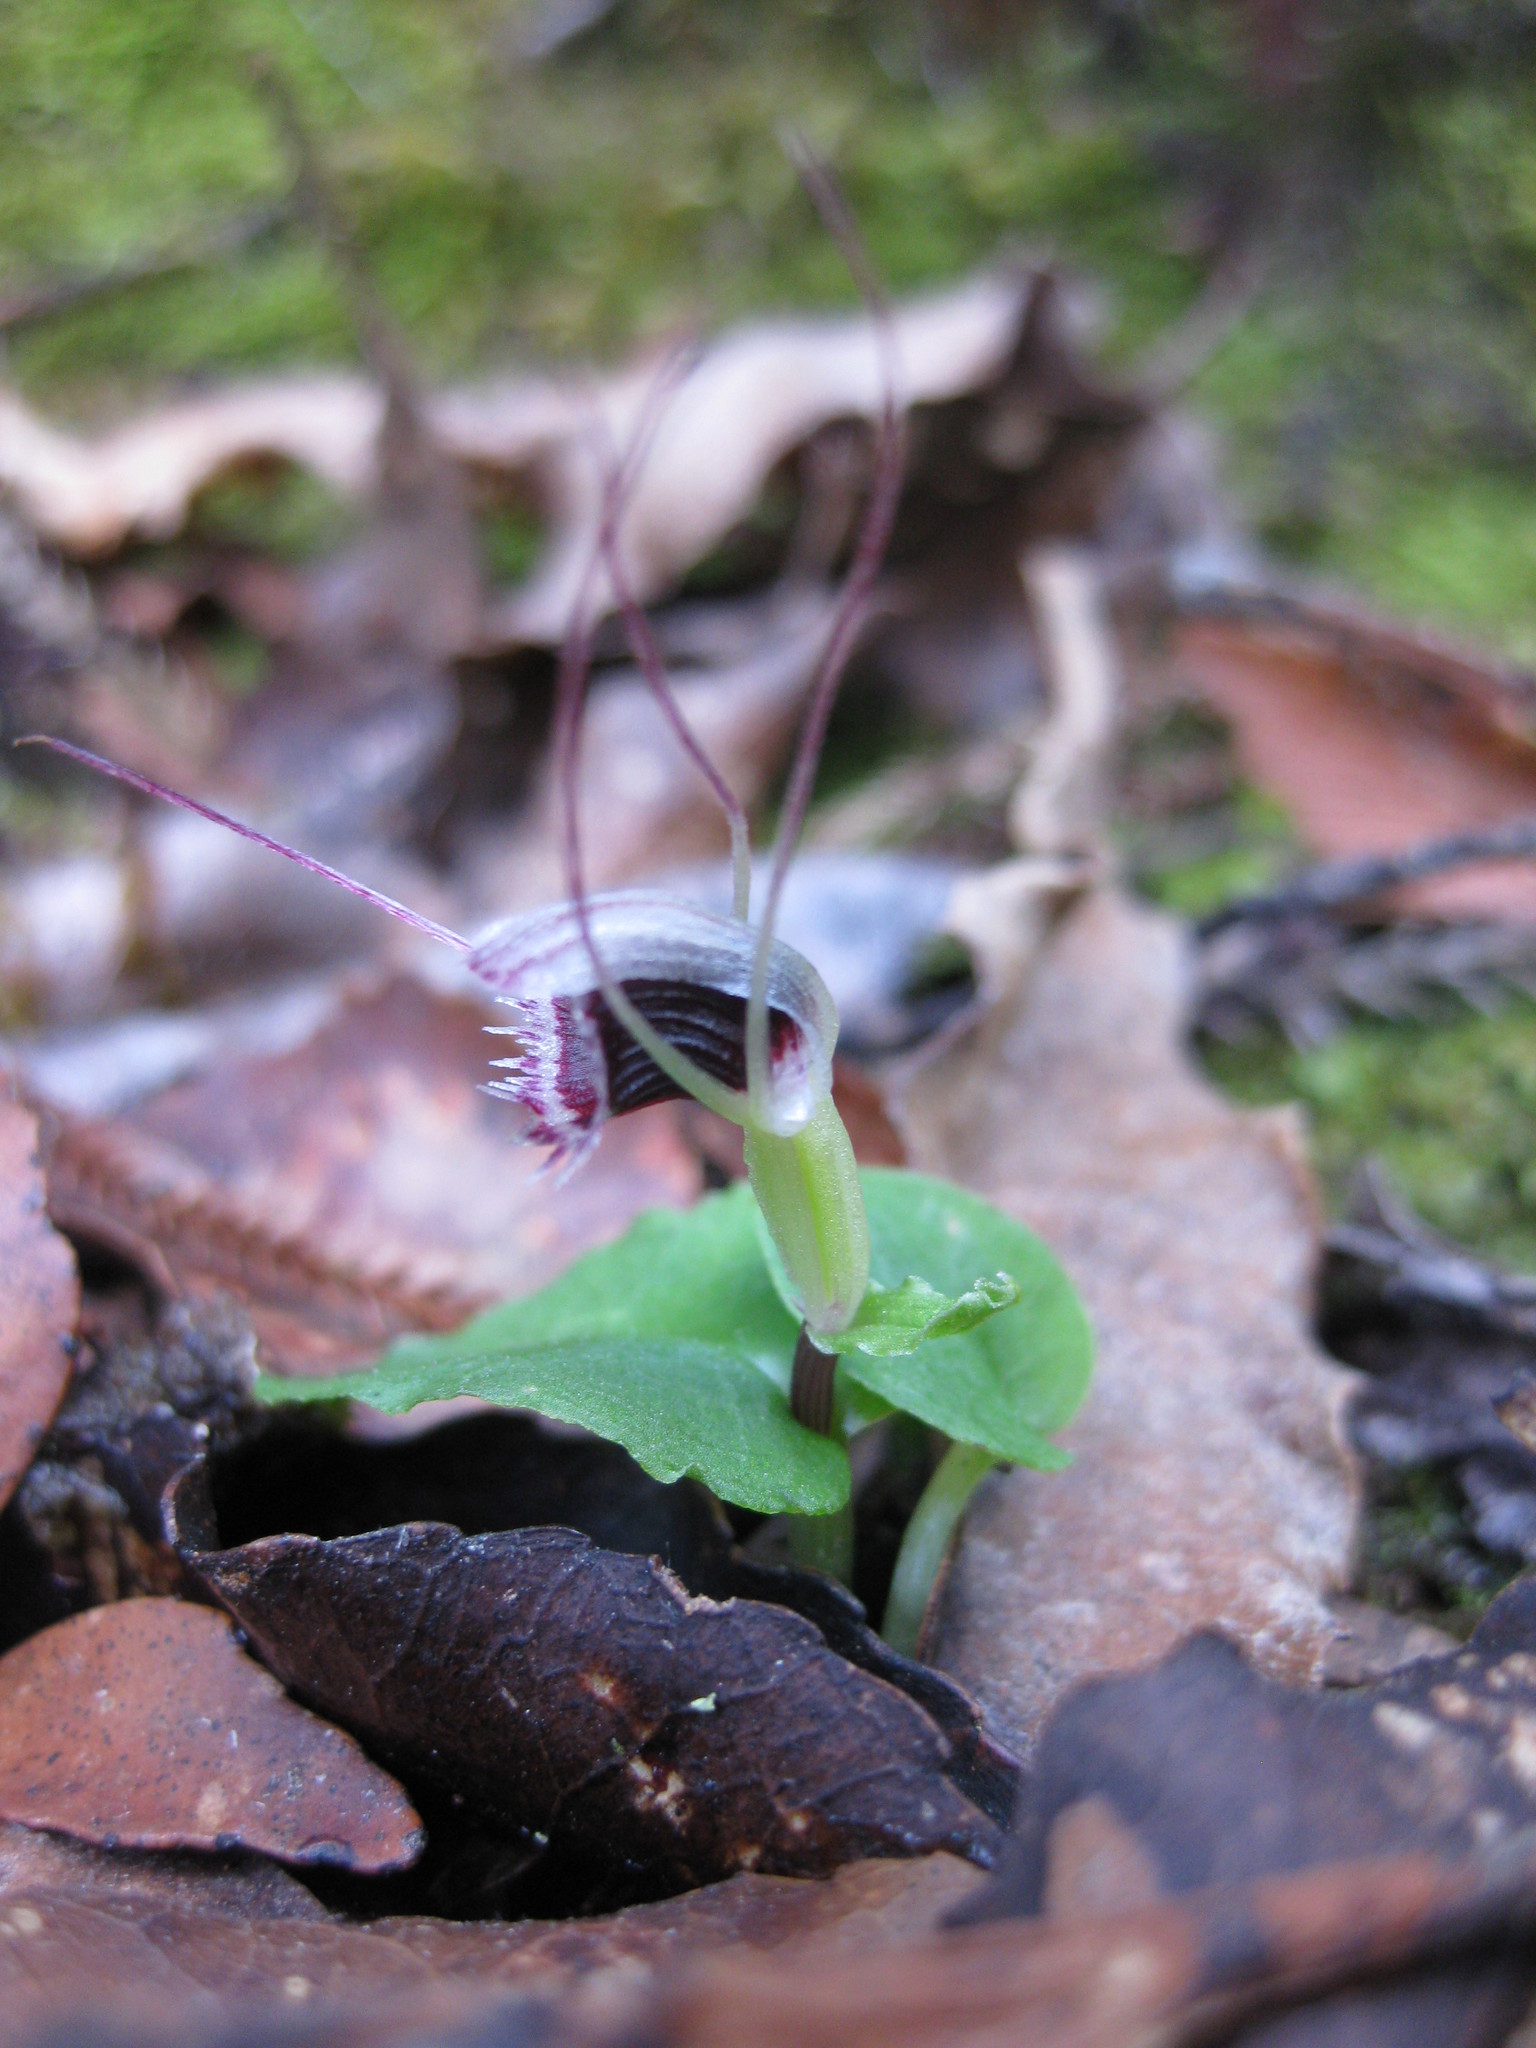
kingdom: Plantae
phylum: Tracheophyta
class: Liliopsida
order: Asparagales
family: Orchidaceae
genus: Corybas
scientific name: Corybas oblongus
